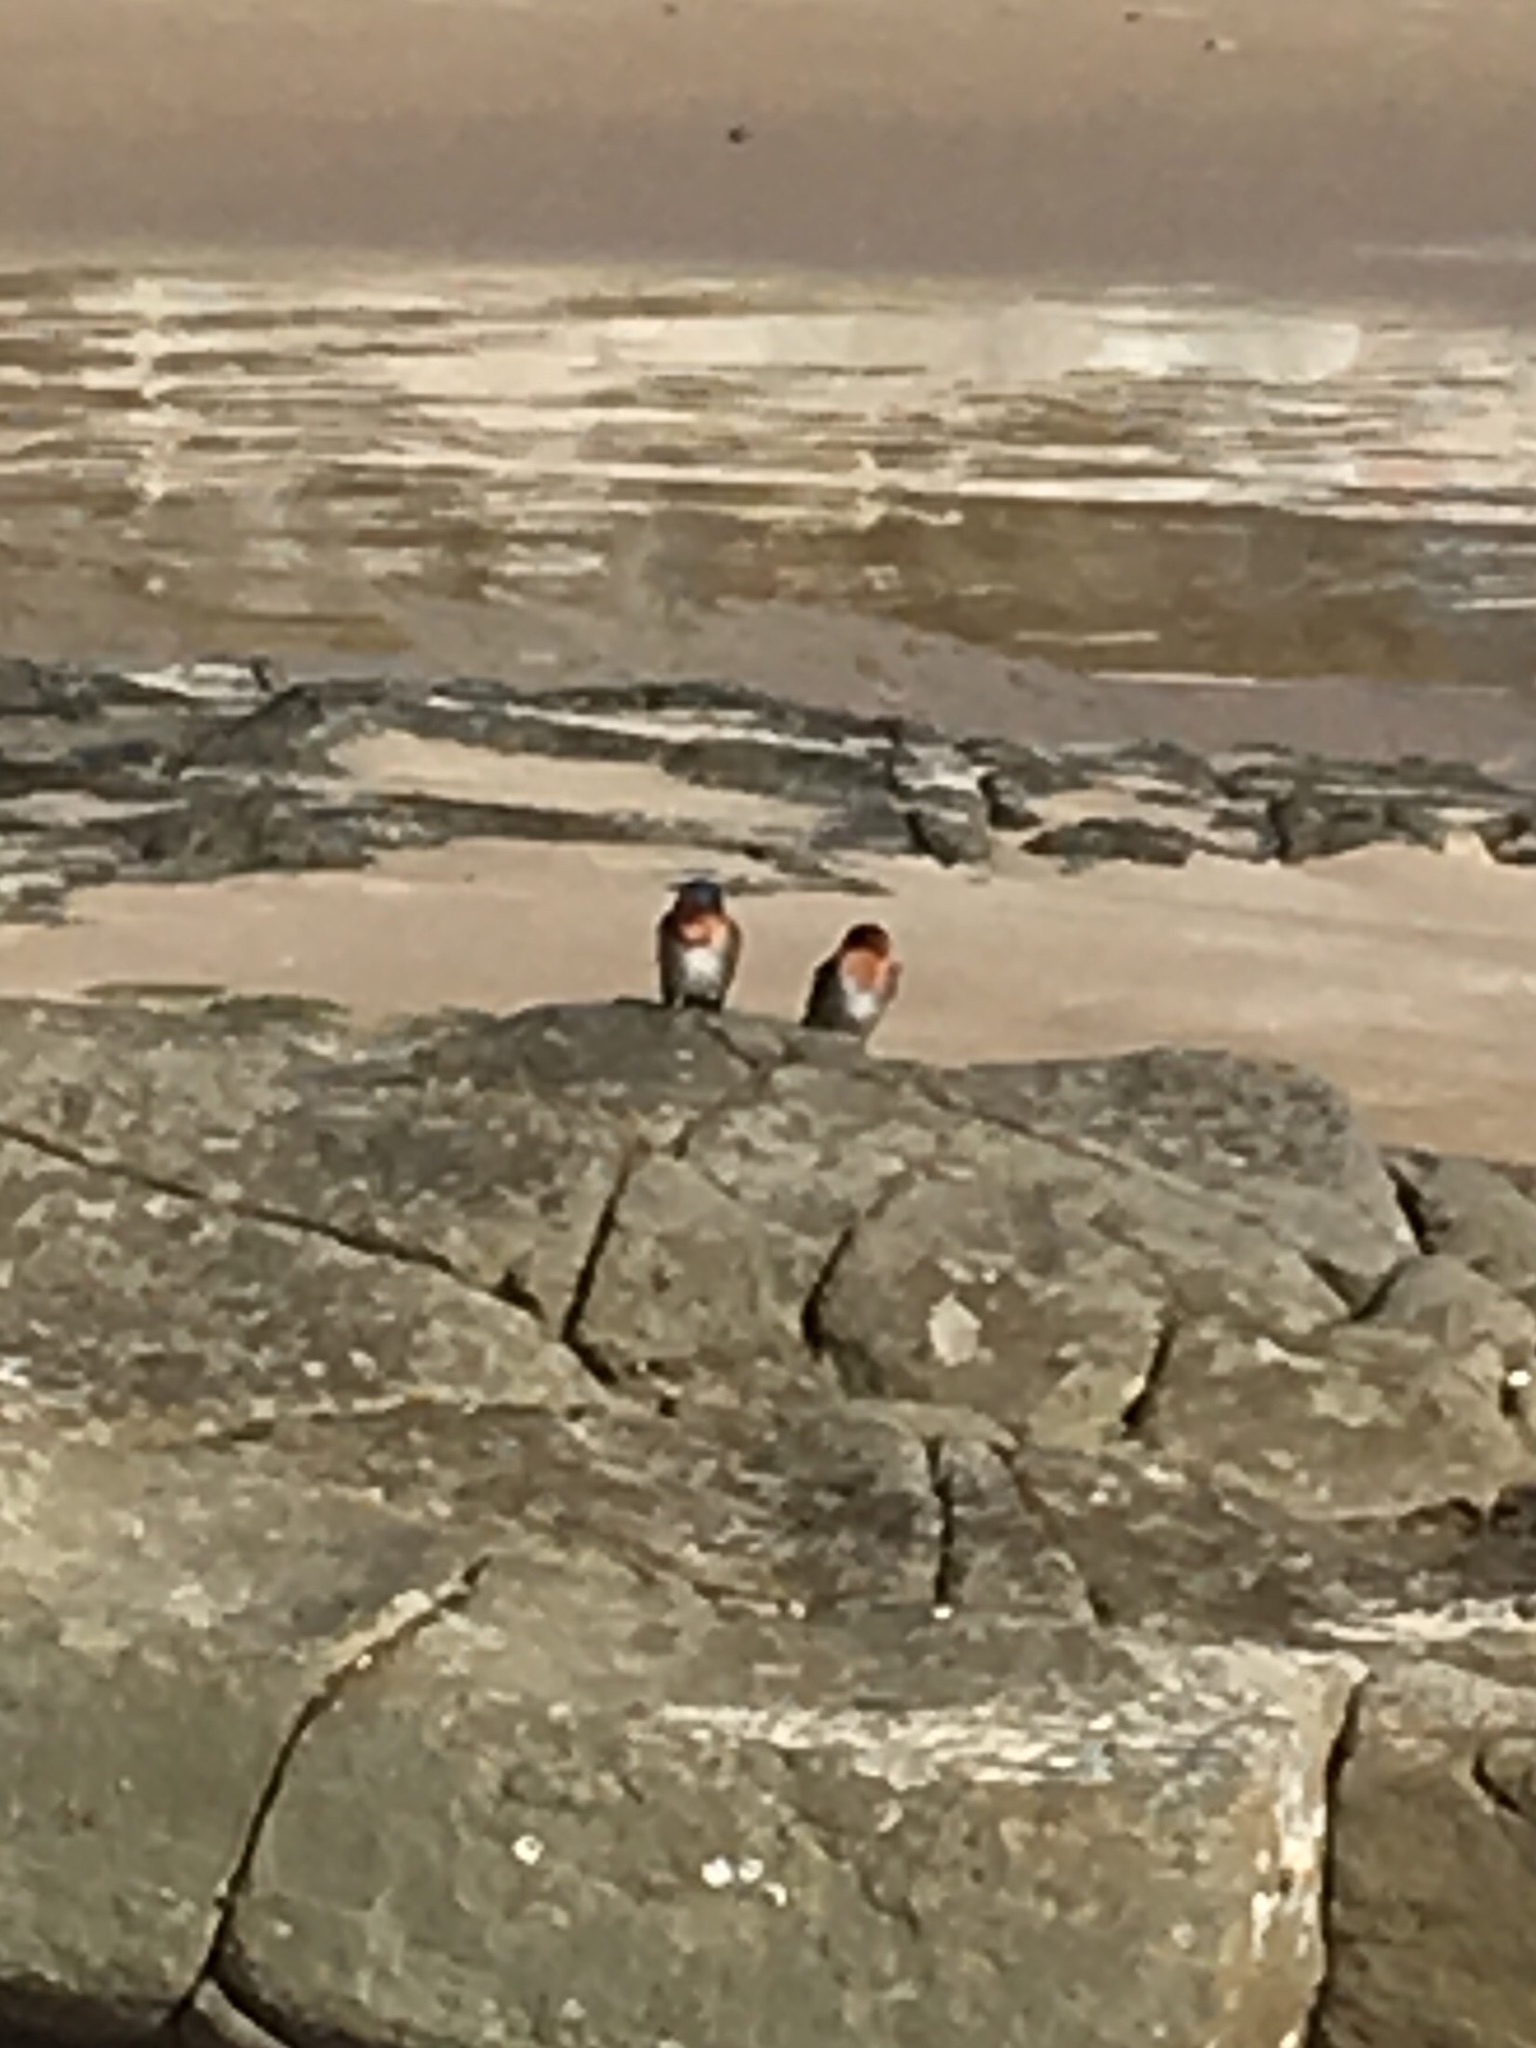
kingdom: Animalia
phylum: Chordata
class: Aves
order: Passeriformes
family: Hirundinidae
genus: Hirundo
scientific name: Hirundo neoxena
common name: Welcome swallow
